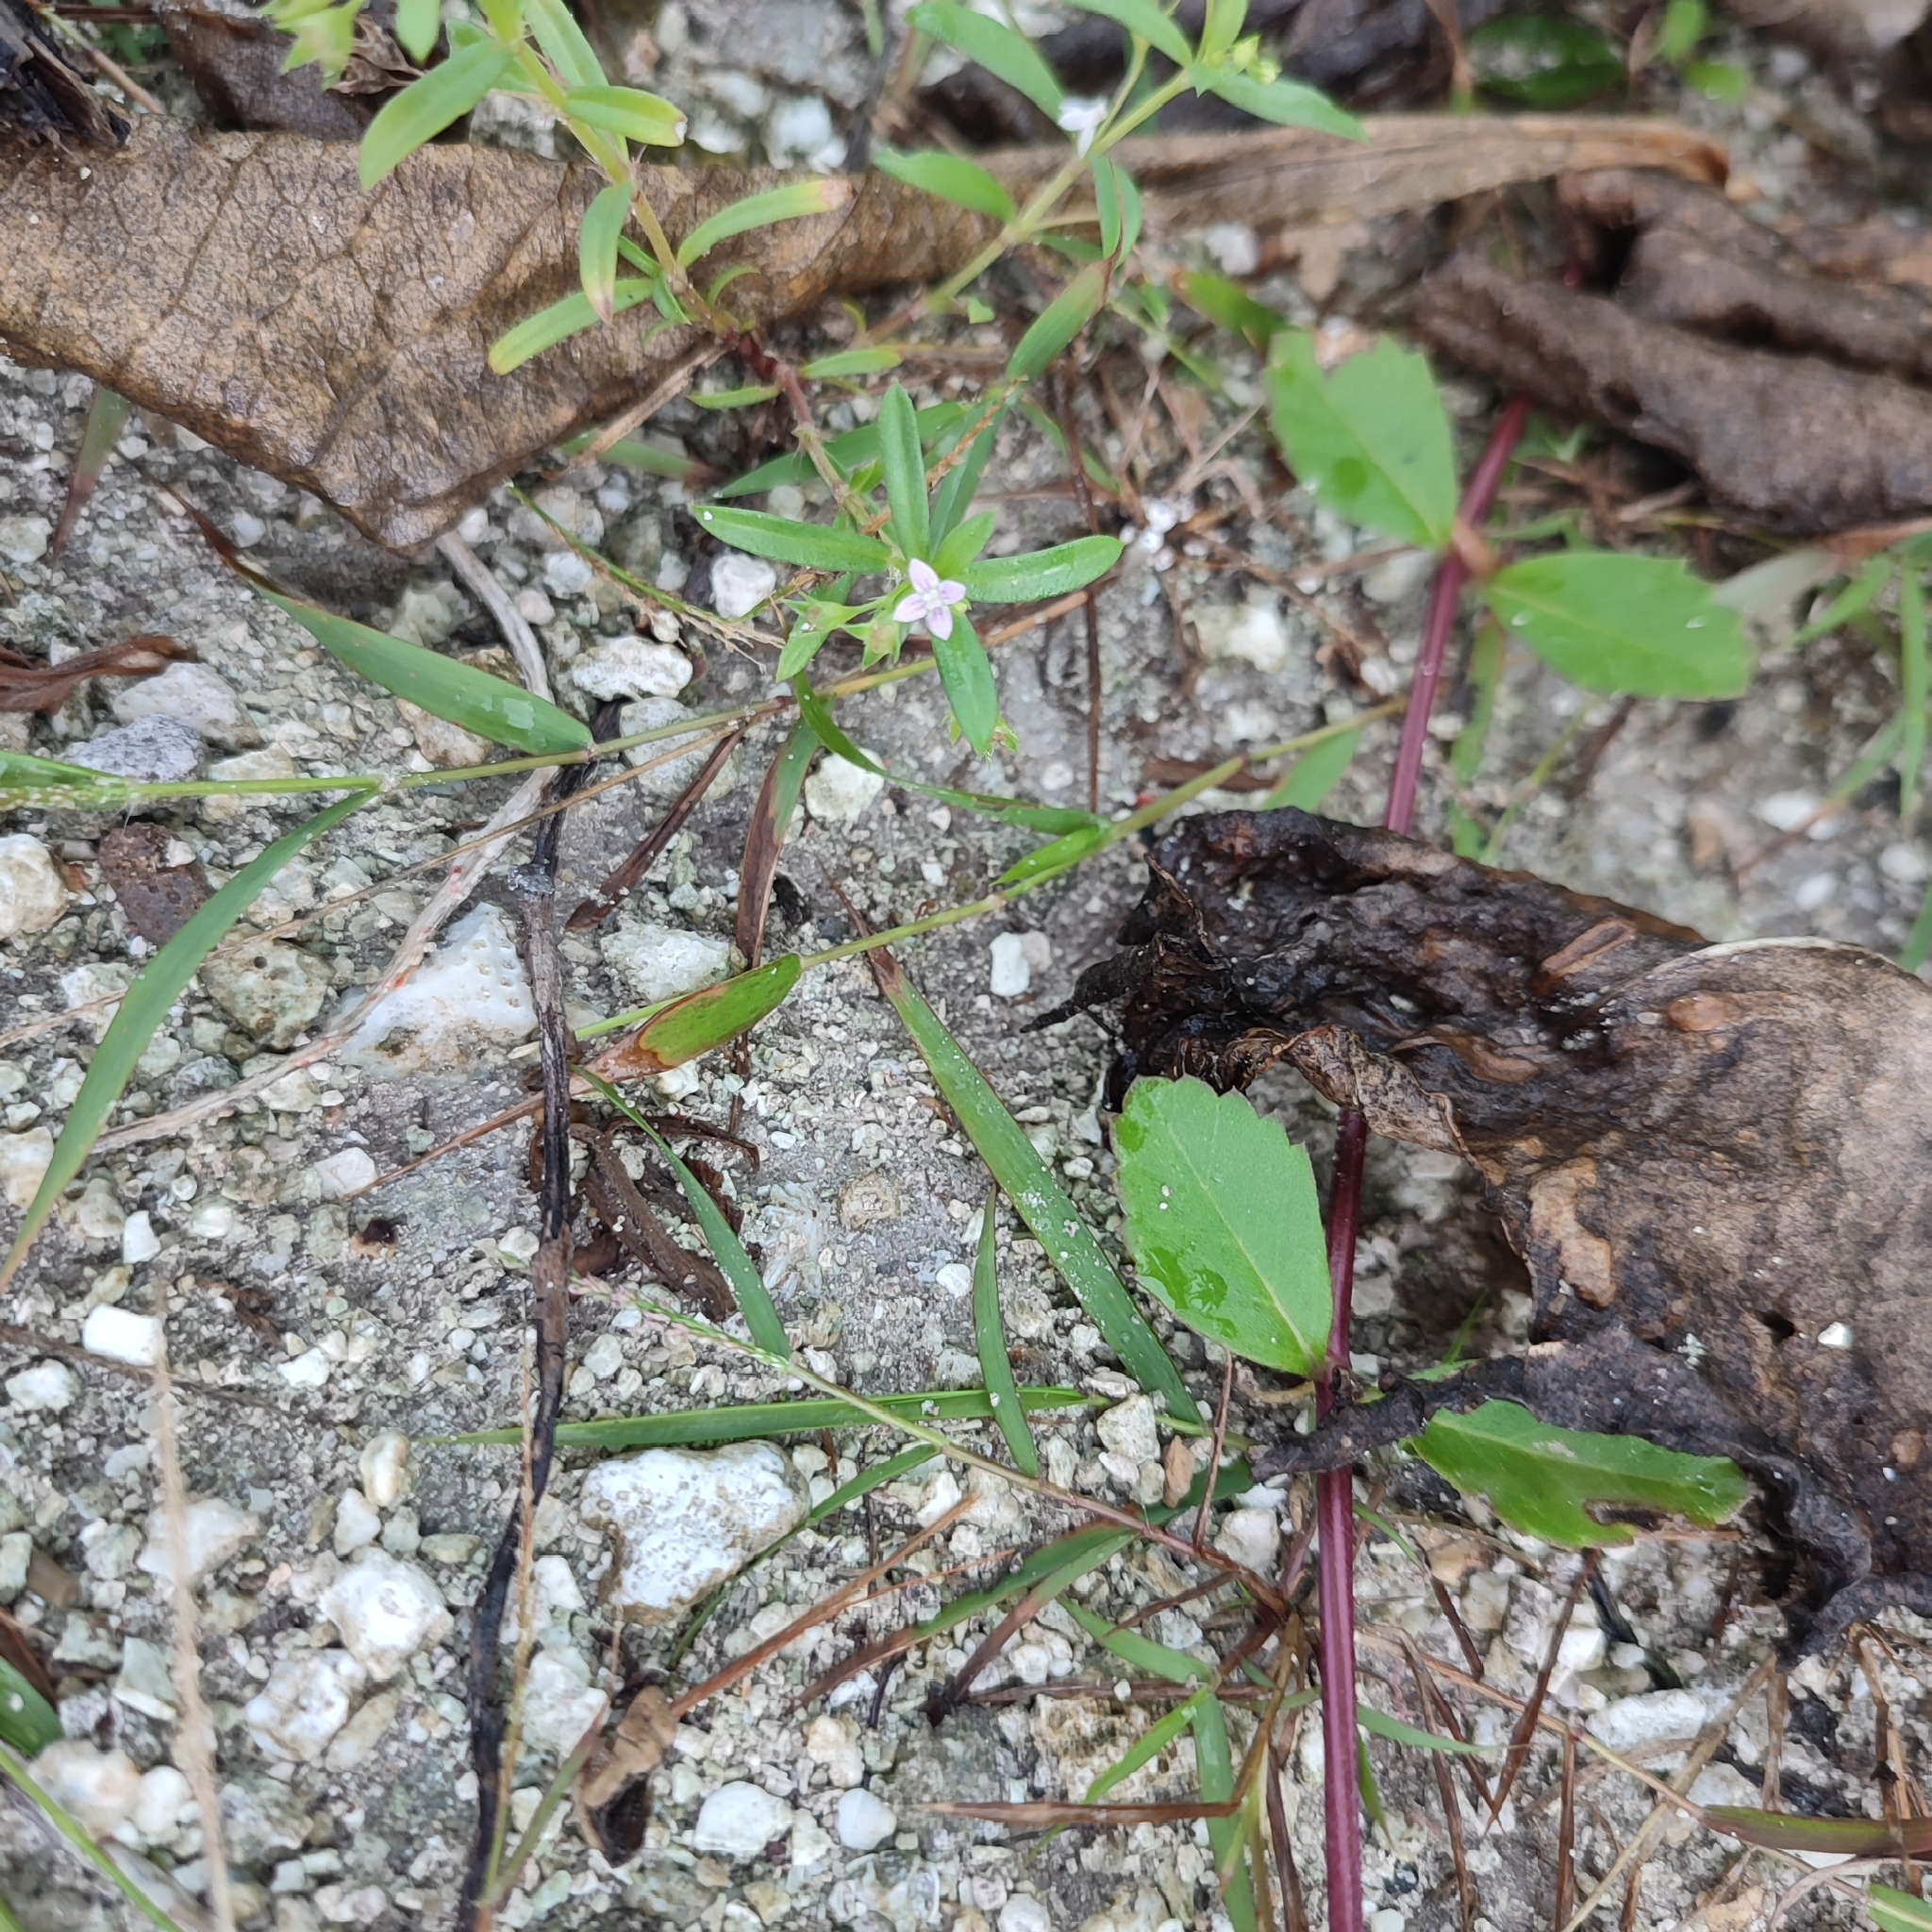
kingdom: Plantae
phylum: Tracheophyta
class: Magnoliopsida
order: Gentianales
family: Rubiaceae
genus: Oldenlandia
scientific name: Oldenlandia corymbosa
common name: Flat-top mille graines
